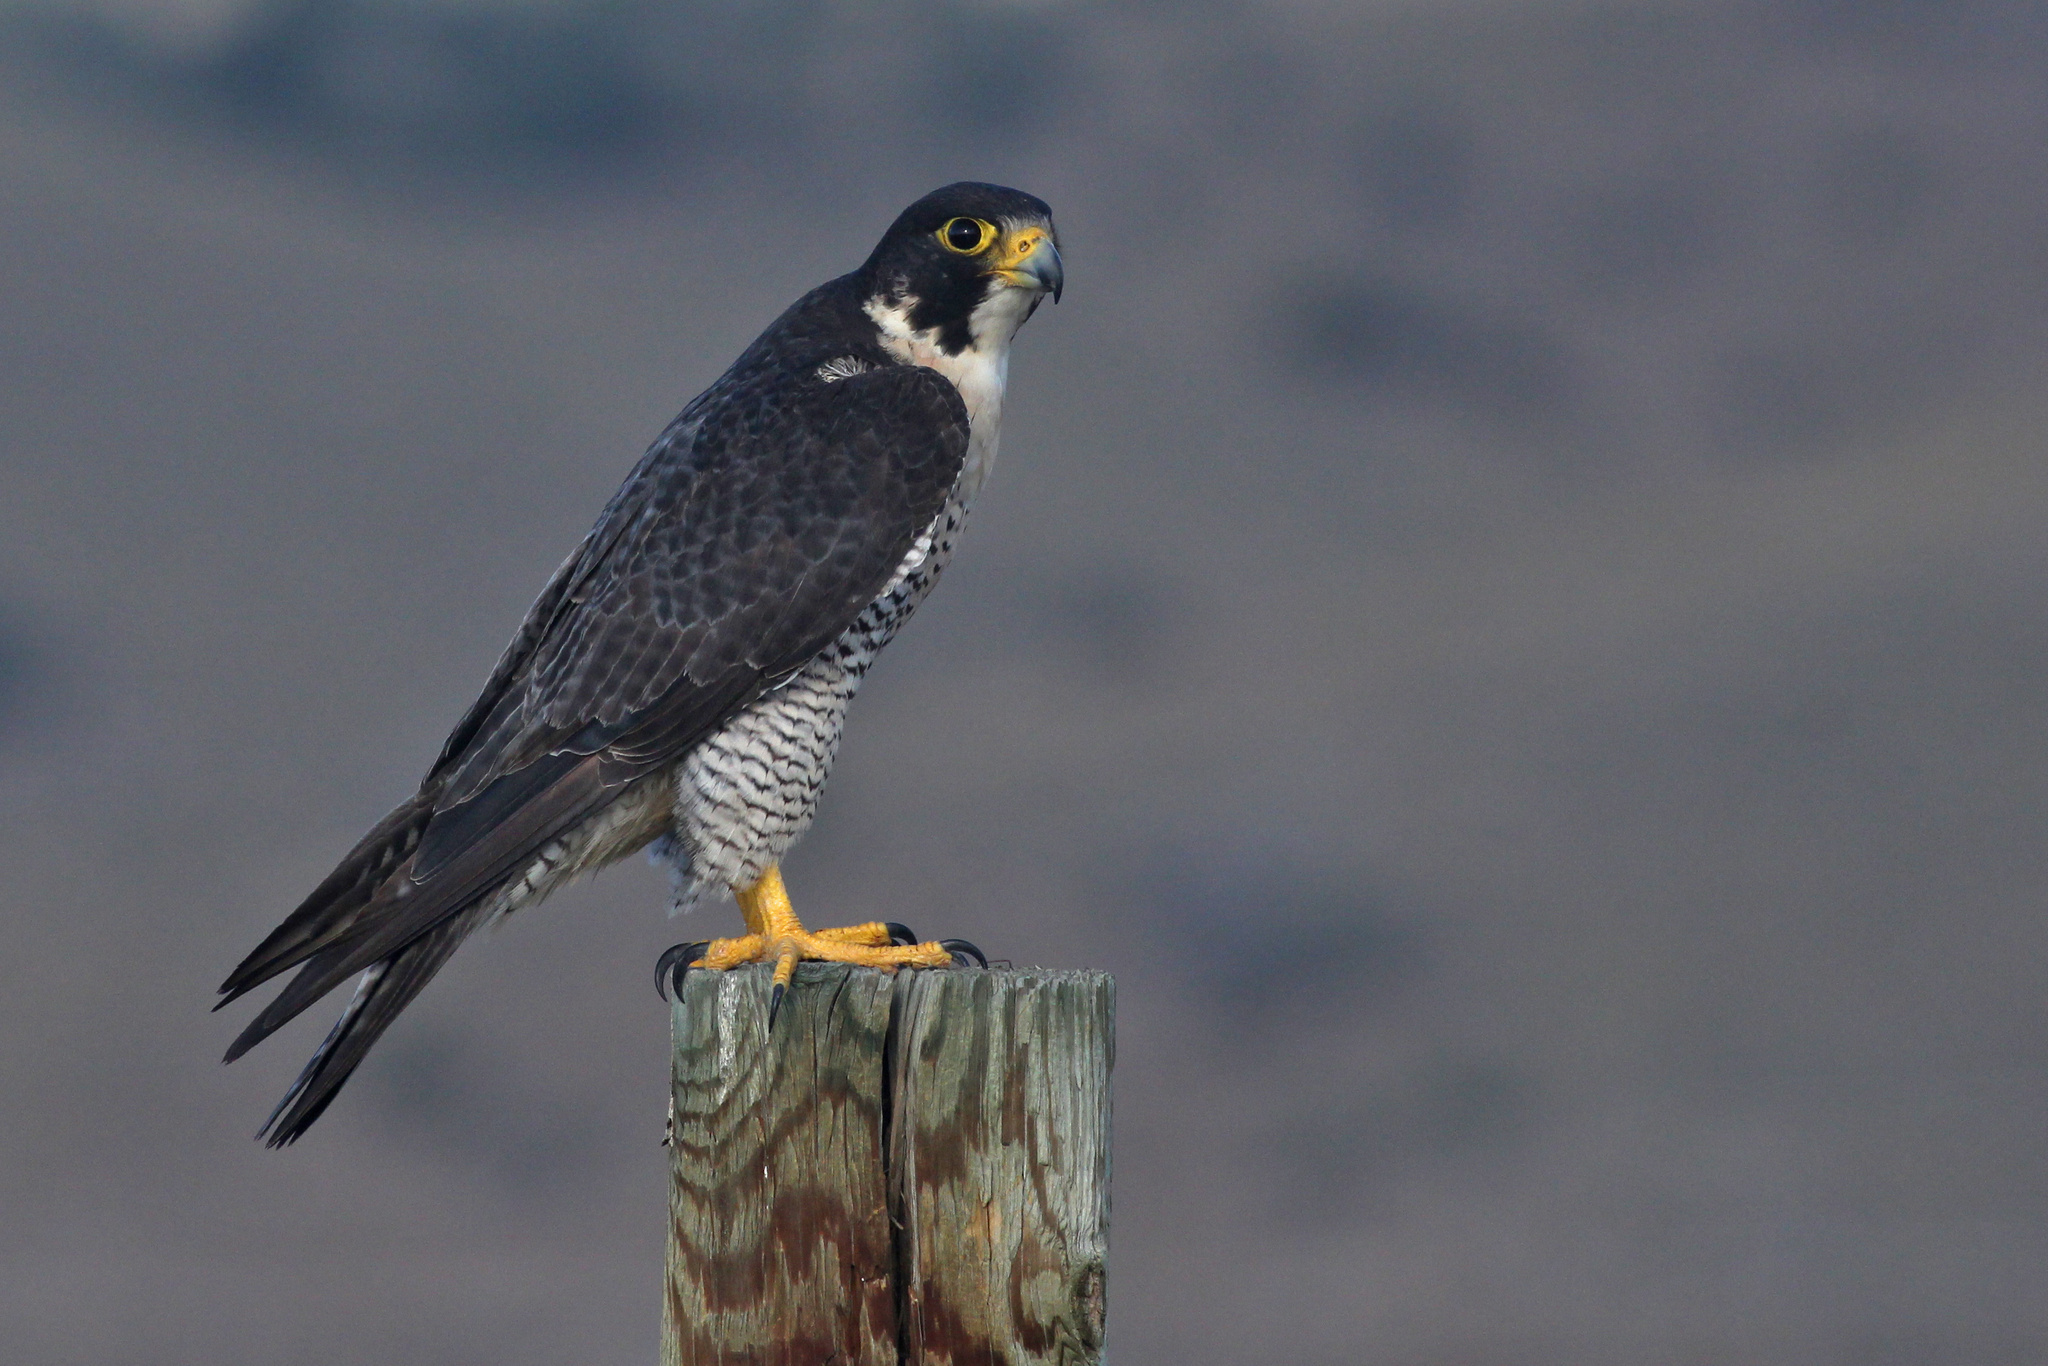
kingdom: Animalia
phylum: Chordata
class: Aves
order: Falconiformes
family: Falconidae
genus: Falco
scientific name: Falco peregrinus
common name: Peregrine falcon
